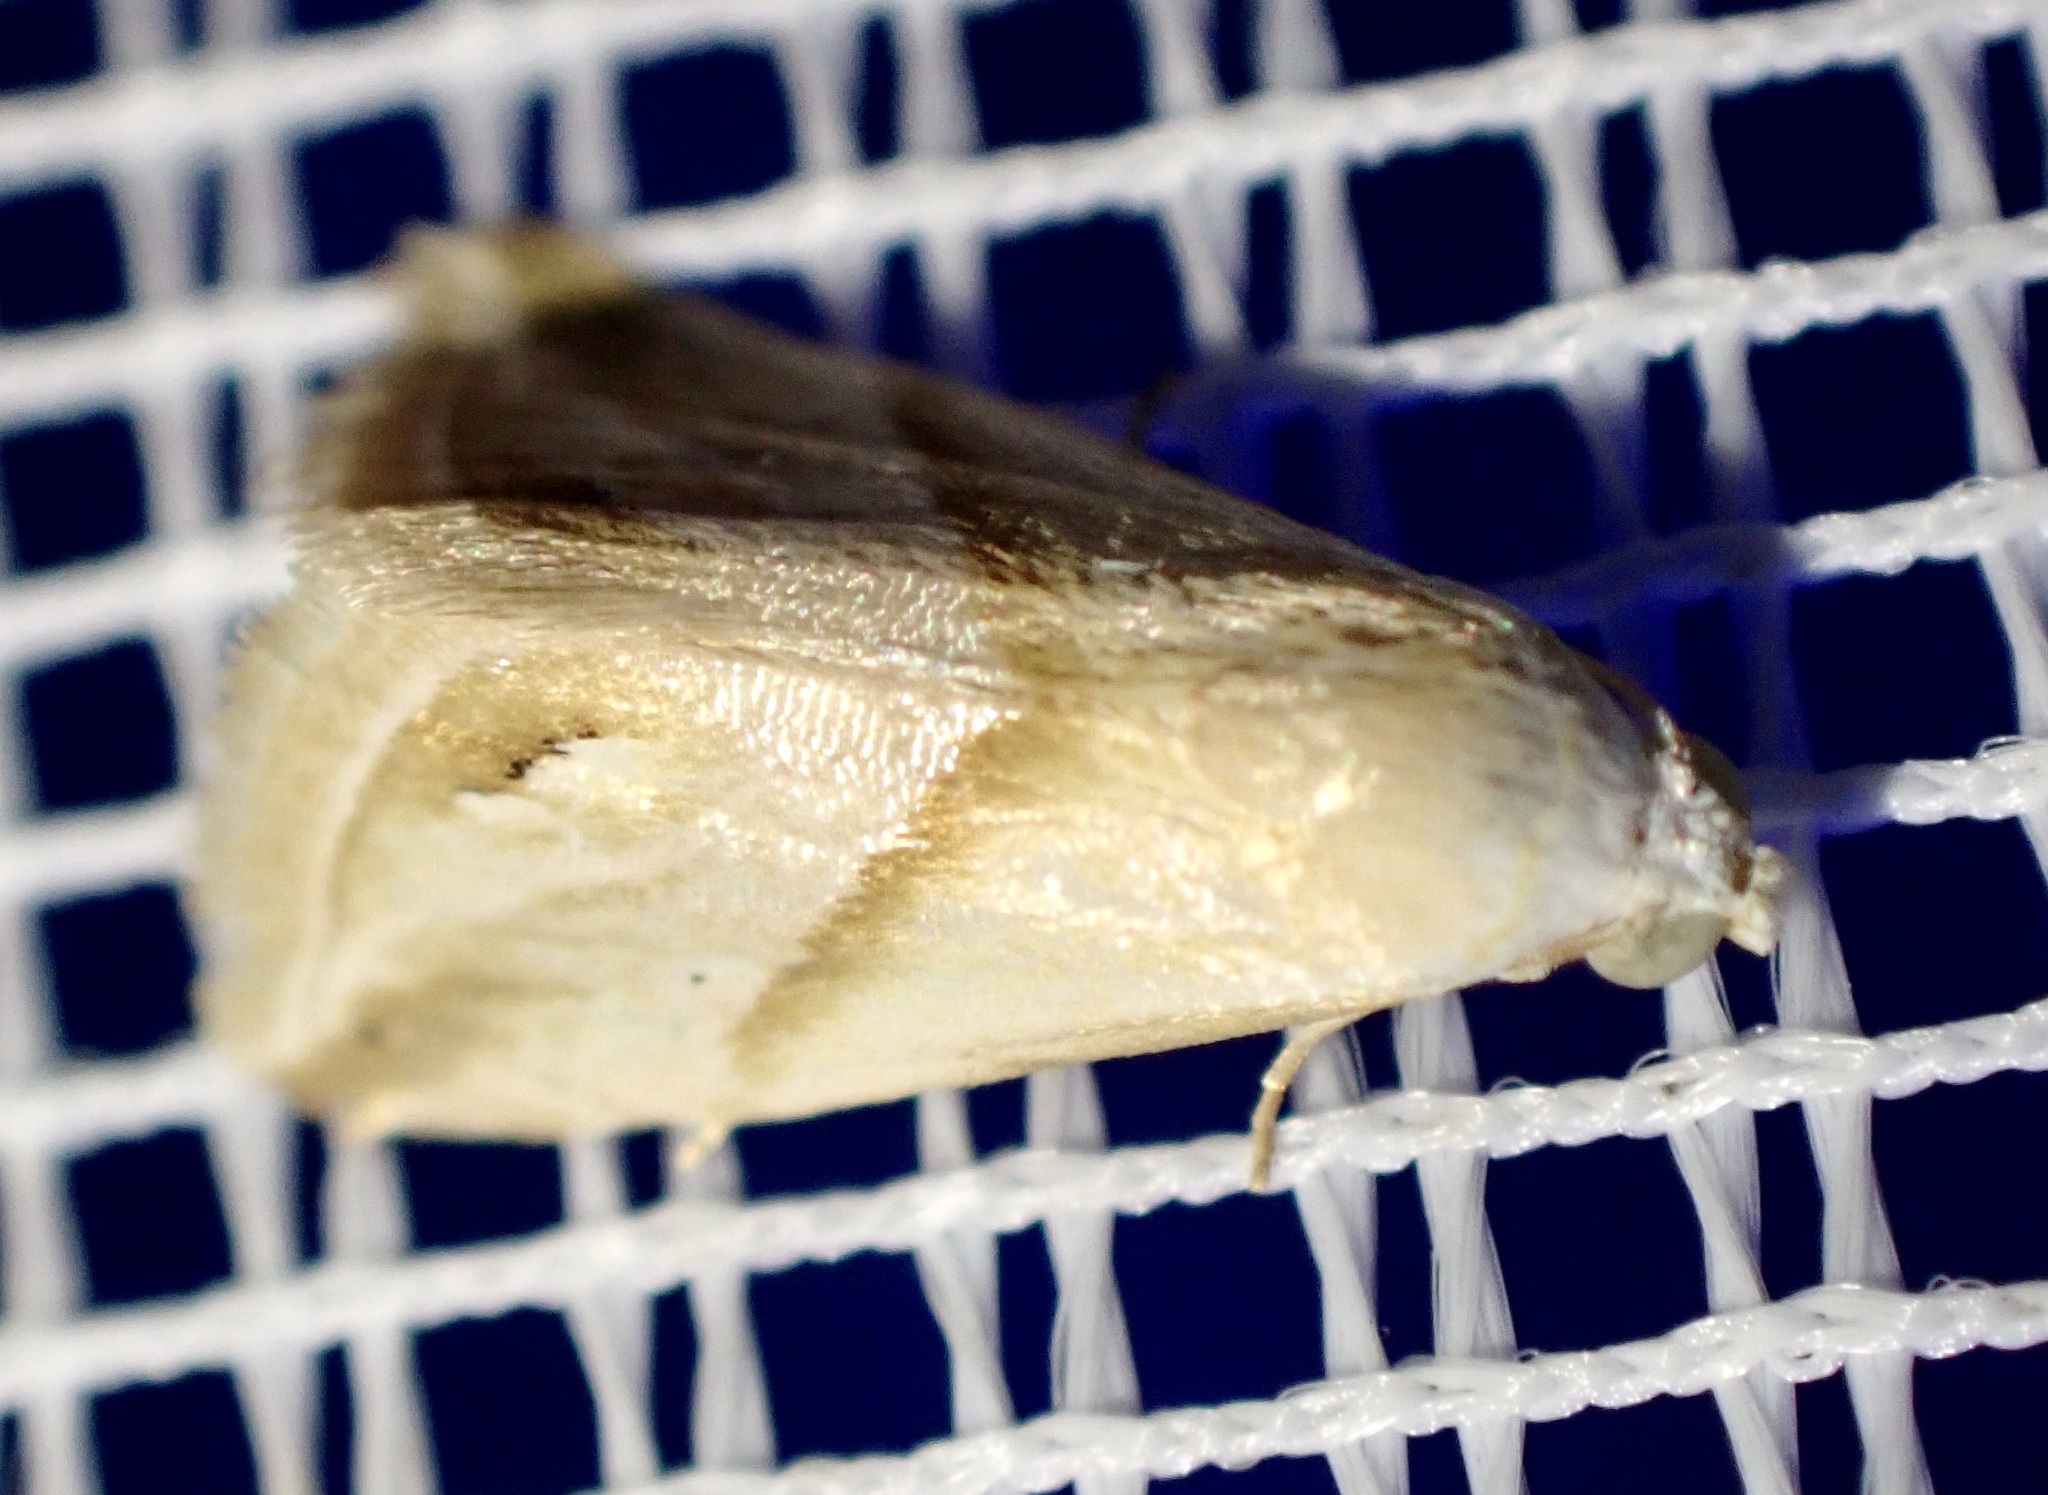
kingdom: Animalia
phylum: Arthropoda
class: Insecta
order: Lepidoptera
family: Noctuidae
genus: Eublemma
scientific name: Eublemma cochylioides
